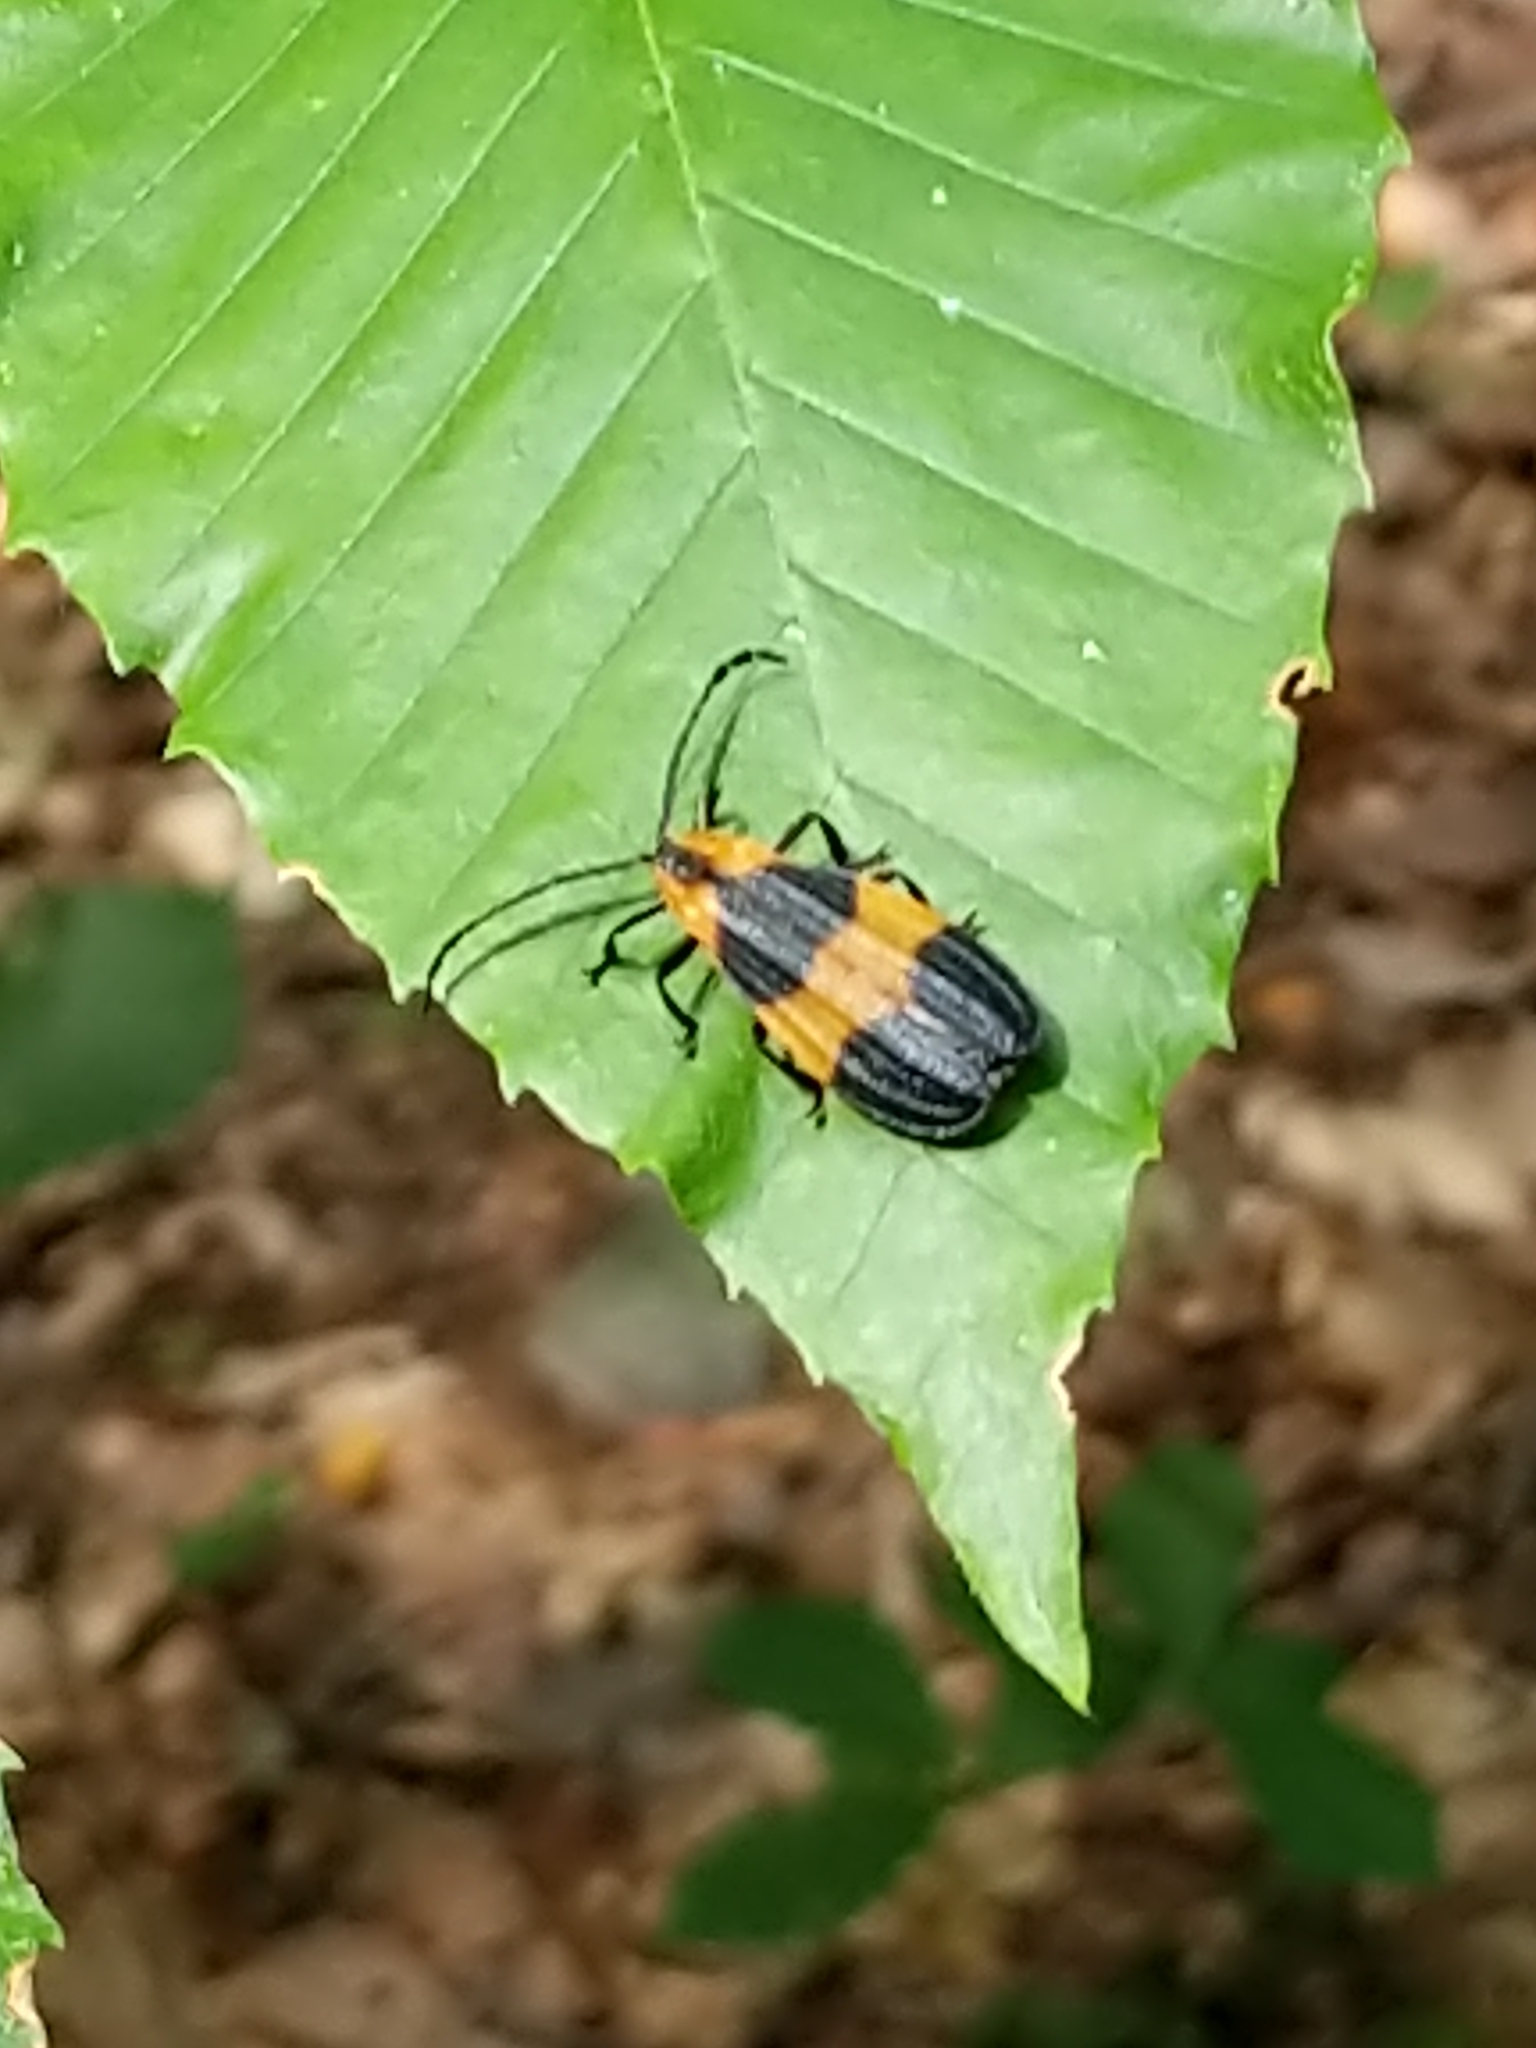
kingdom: Animalia
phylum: Arthropoda
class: Insecta
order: Coleoptera
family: Lycidae
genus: Calopteron
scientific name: Calopteron reticulatum
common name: Banded net-winged beetle
